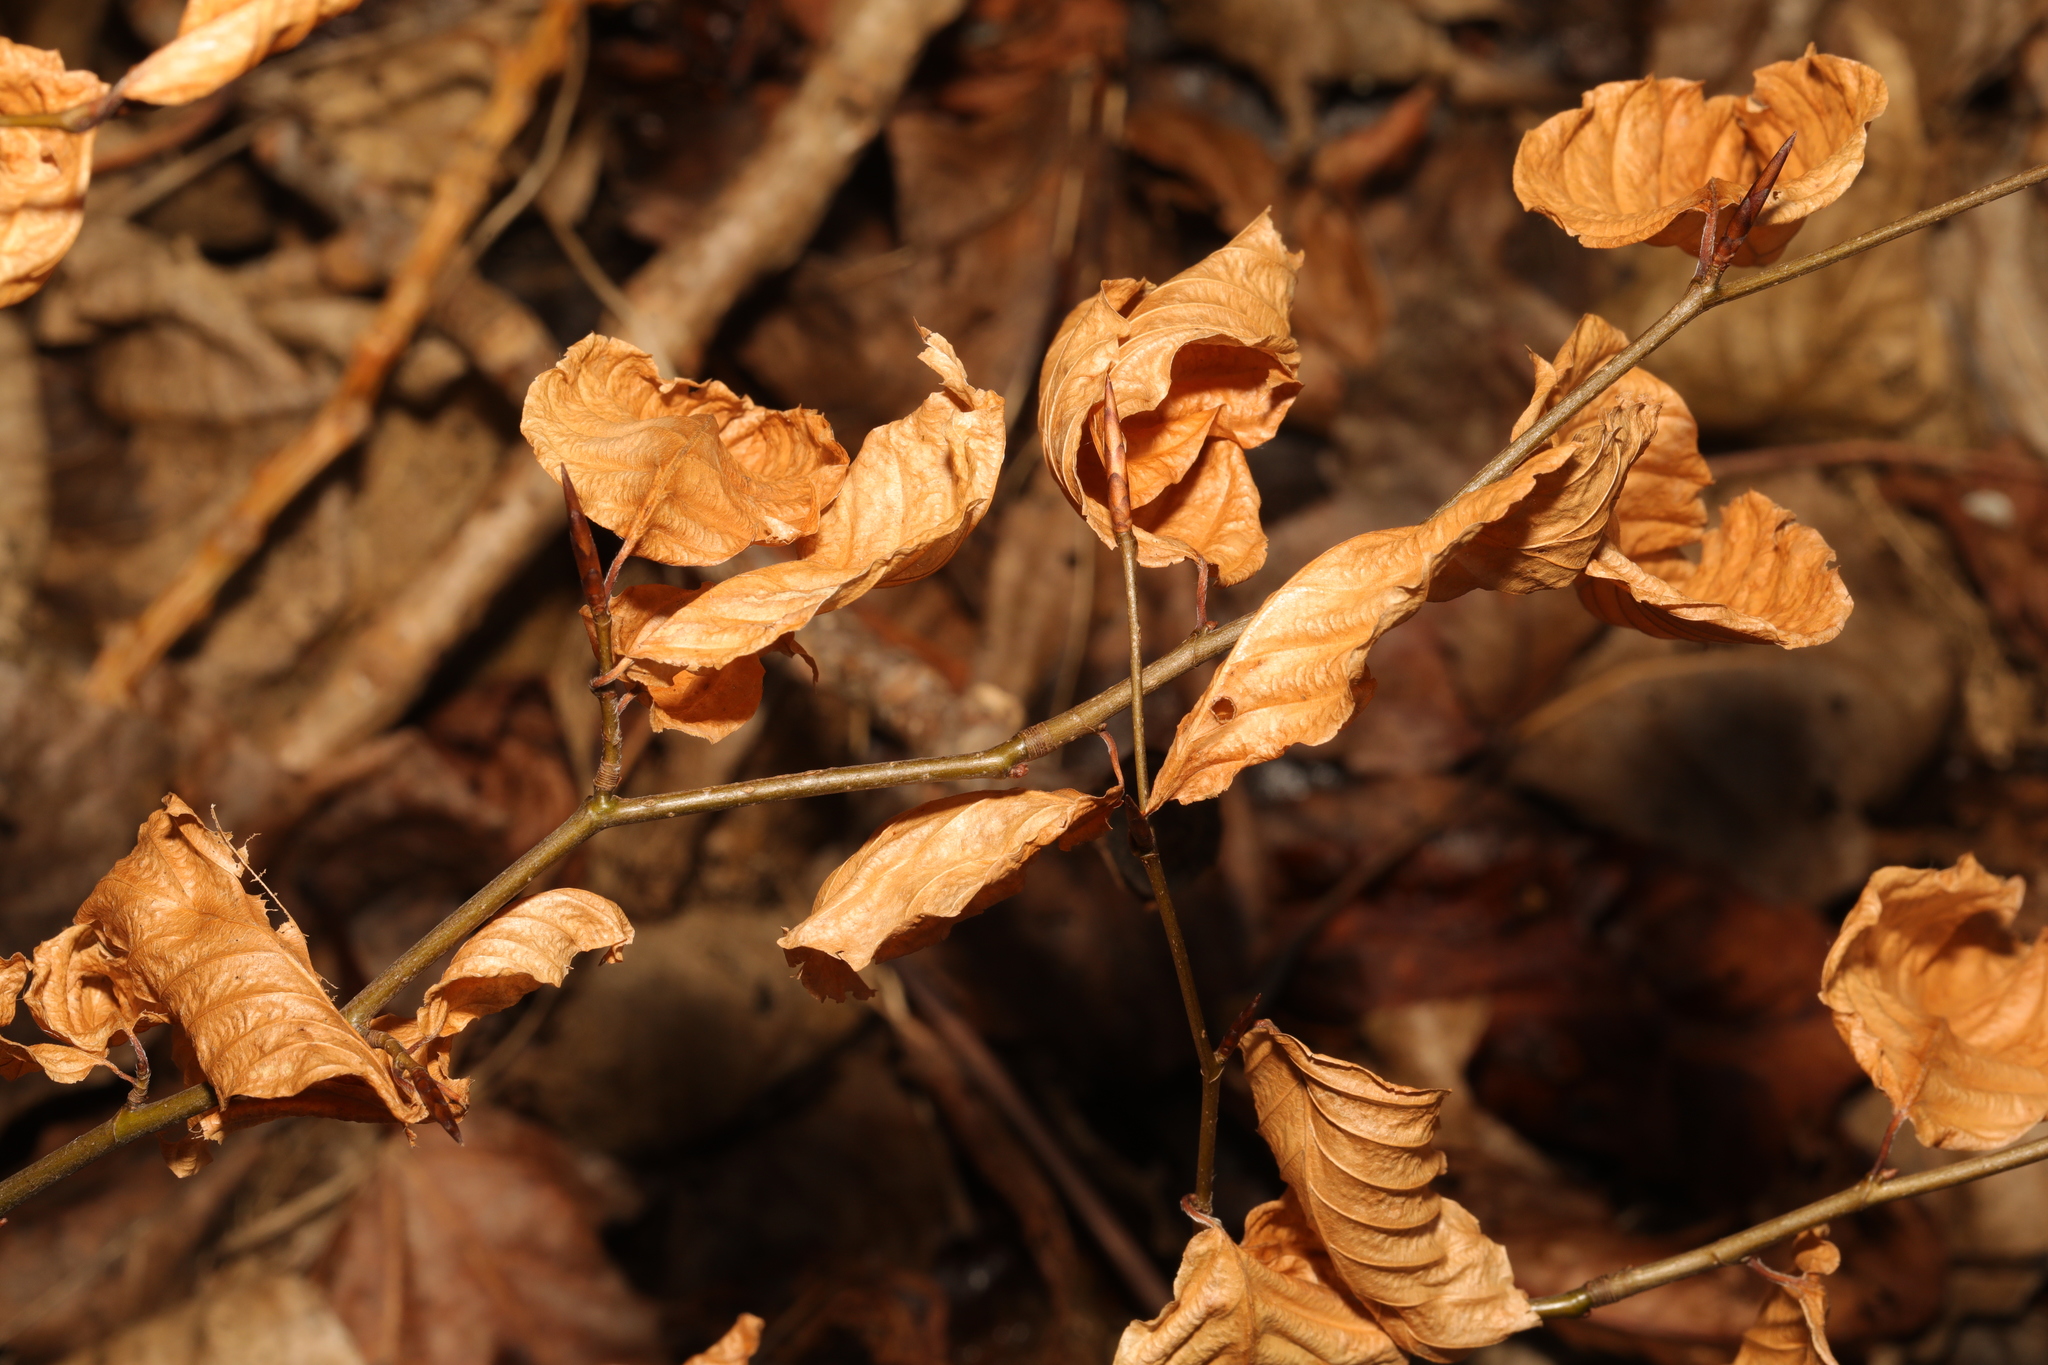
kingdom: Plantae
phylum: Tracheophyta
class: Magnoliopsida
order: Fagales
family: Fagaceae
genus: Fagus
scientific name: Fagus sylvatica
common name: Beech
